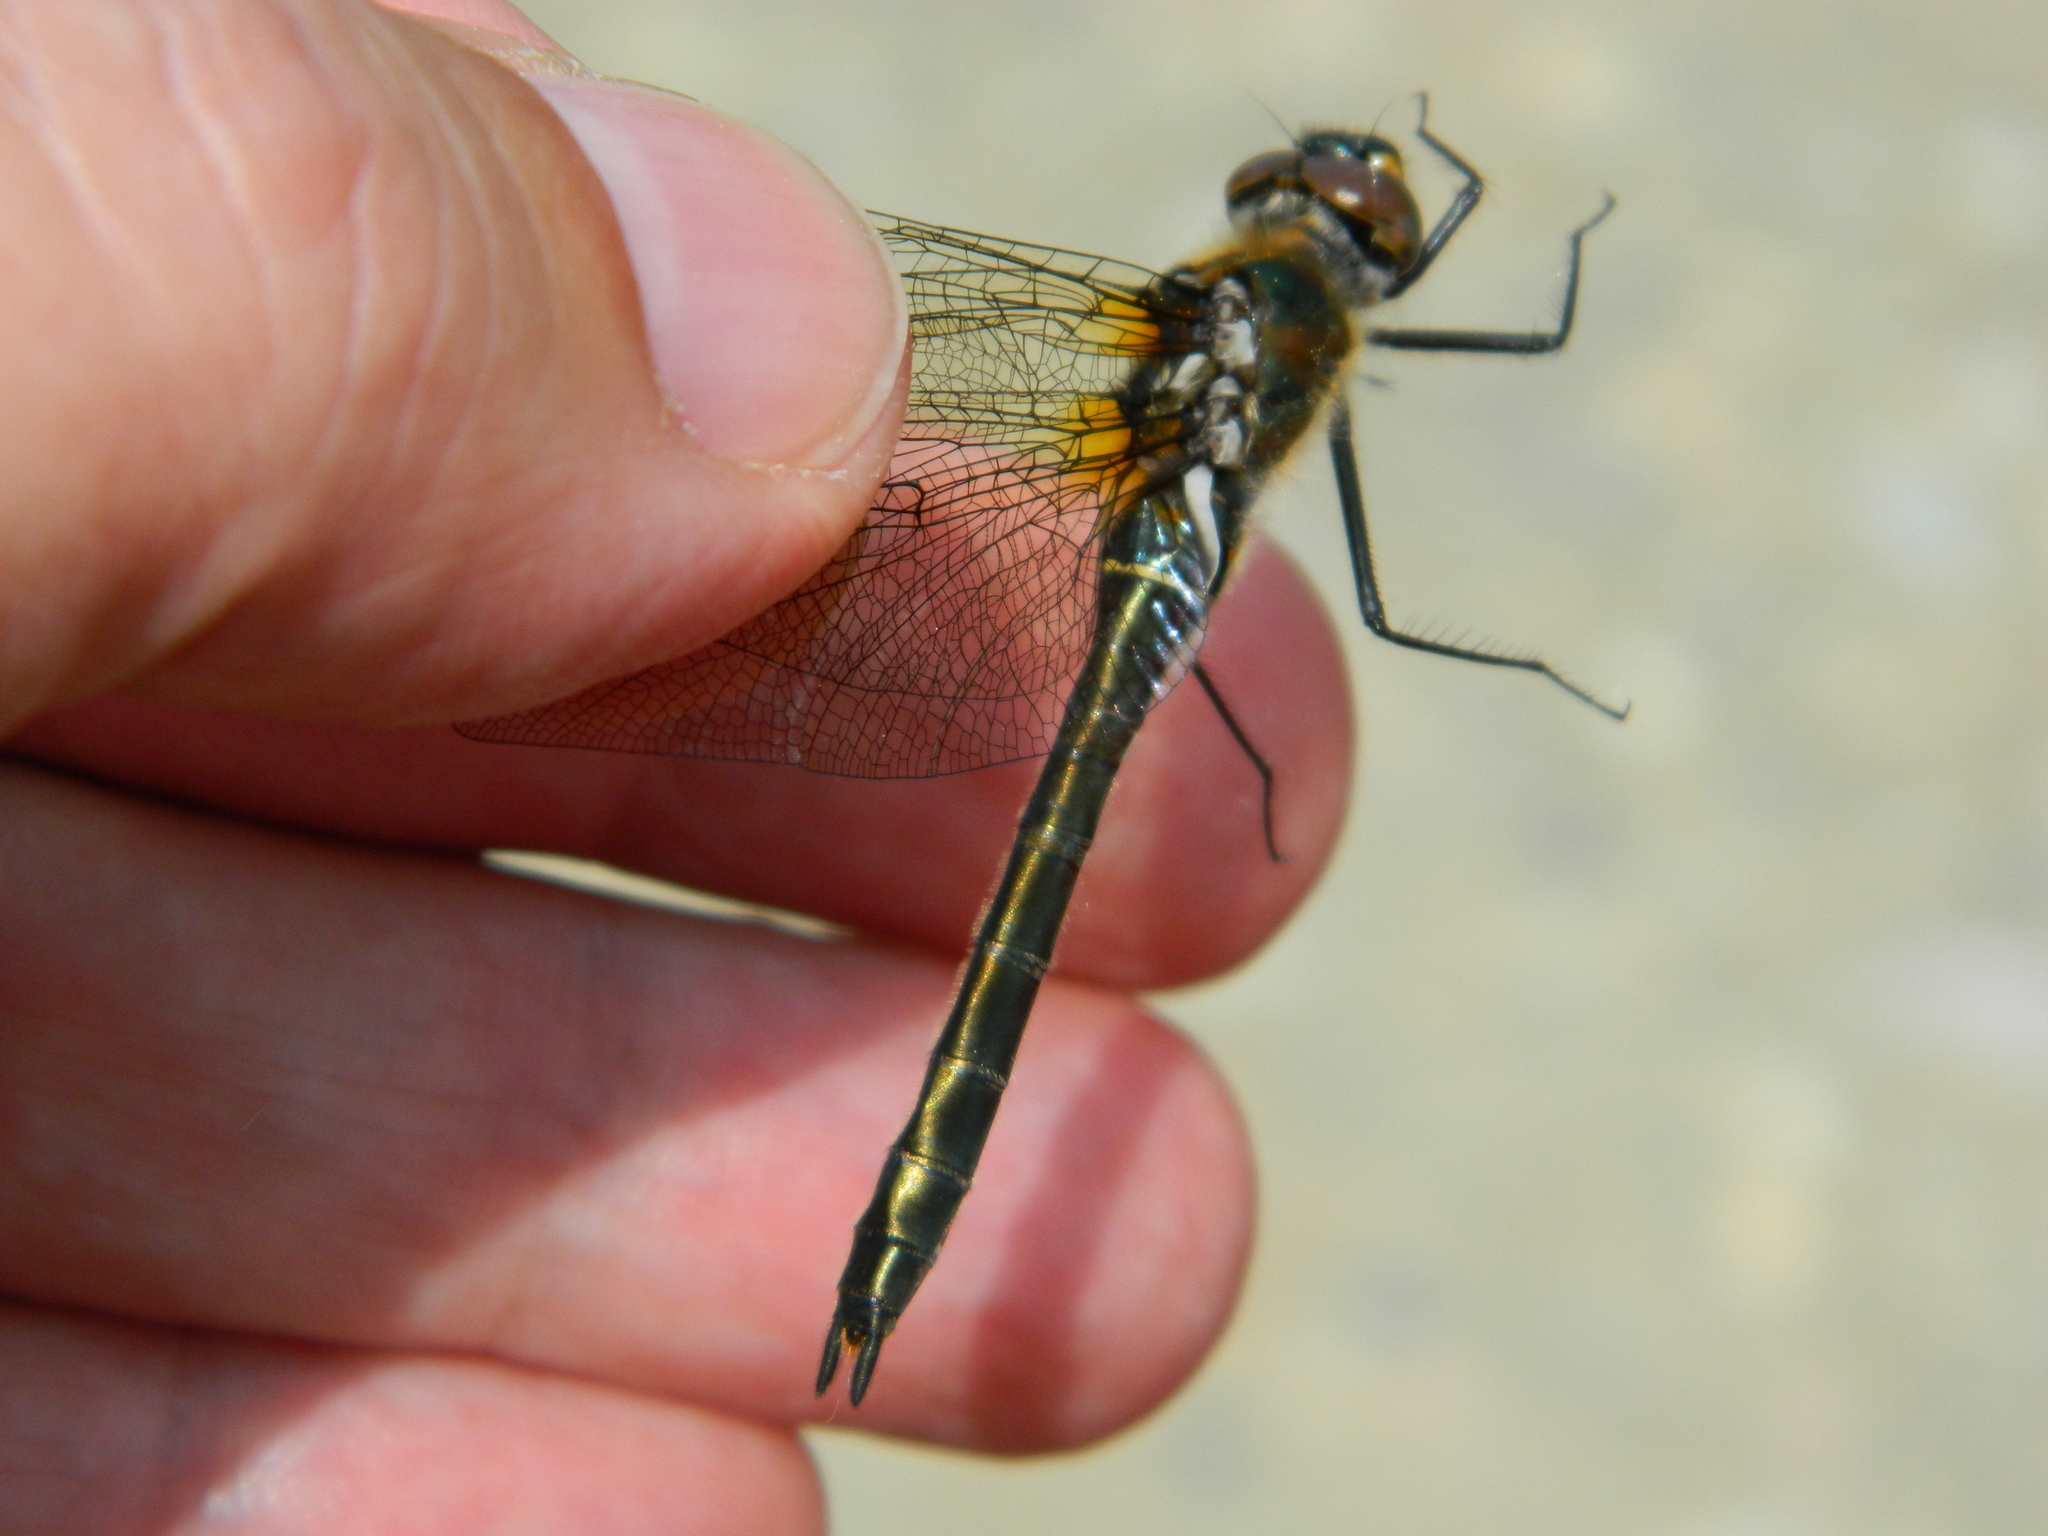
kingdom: Animalia
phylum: Arthropoda
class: Insecta
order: Odonata
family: Corduliidae
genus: Cordulia
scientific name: Cordulia shurtleffii
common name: American emerald
